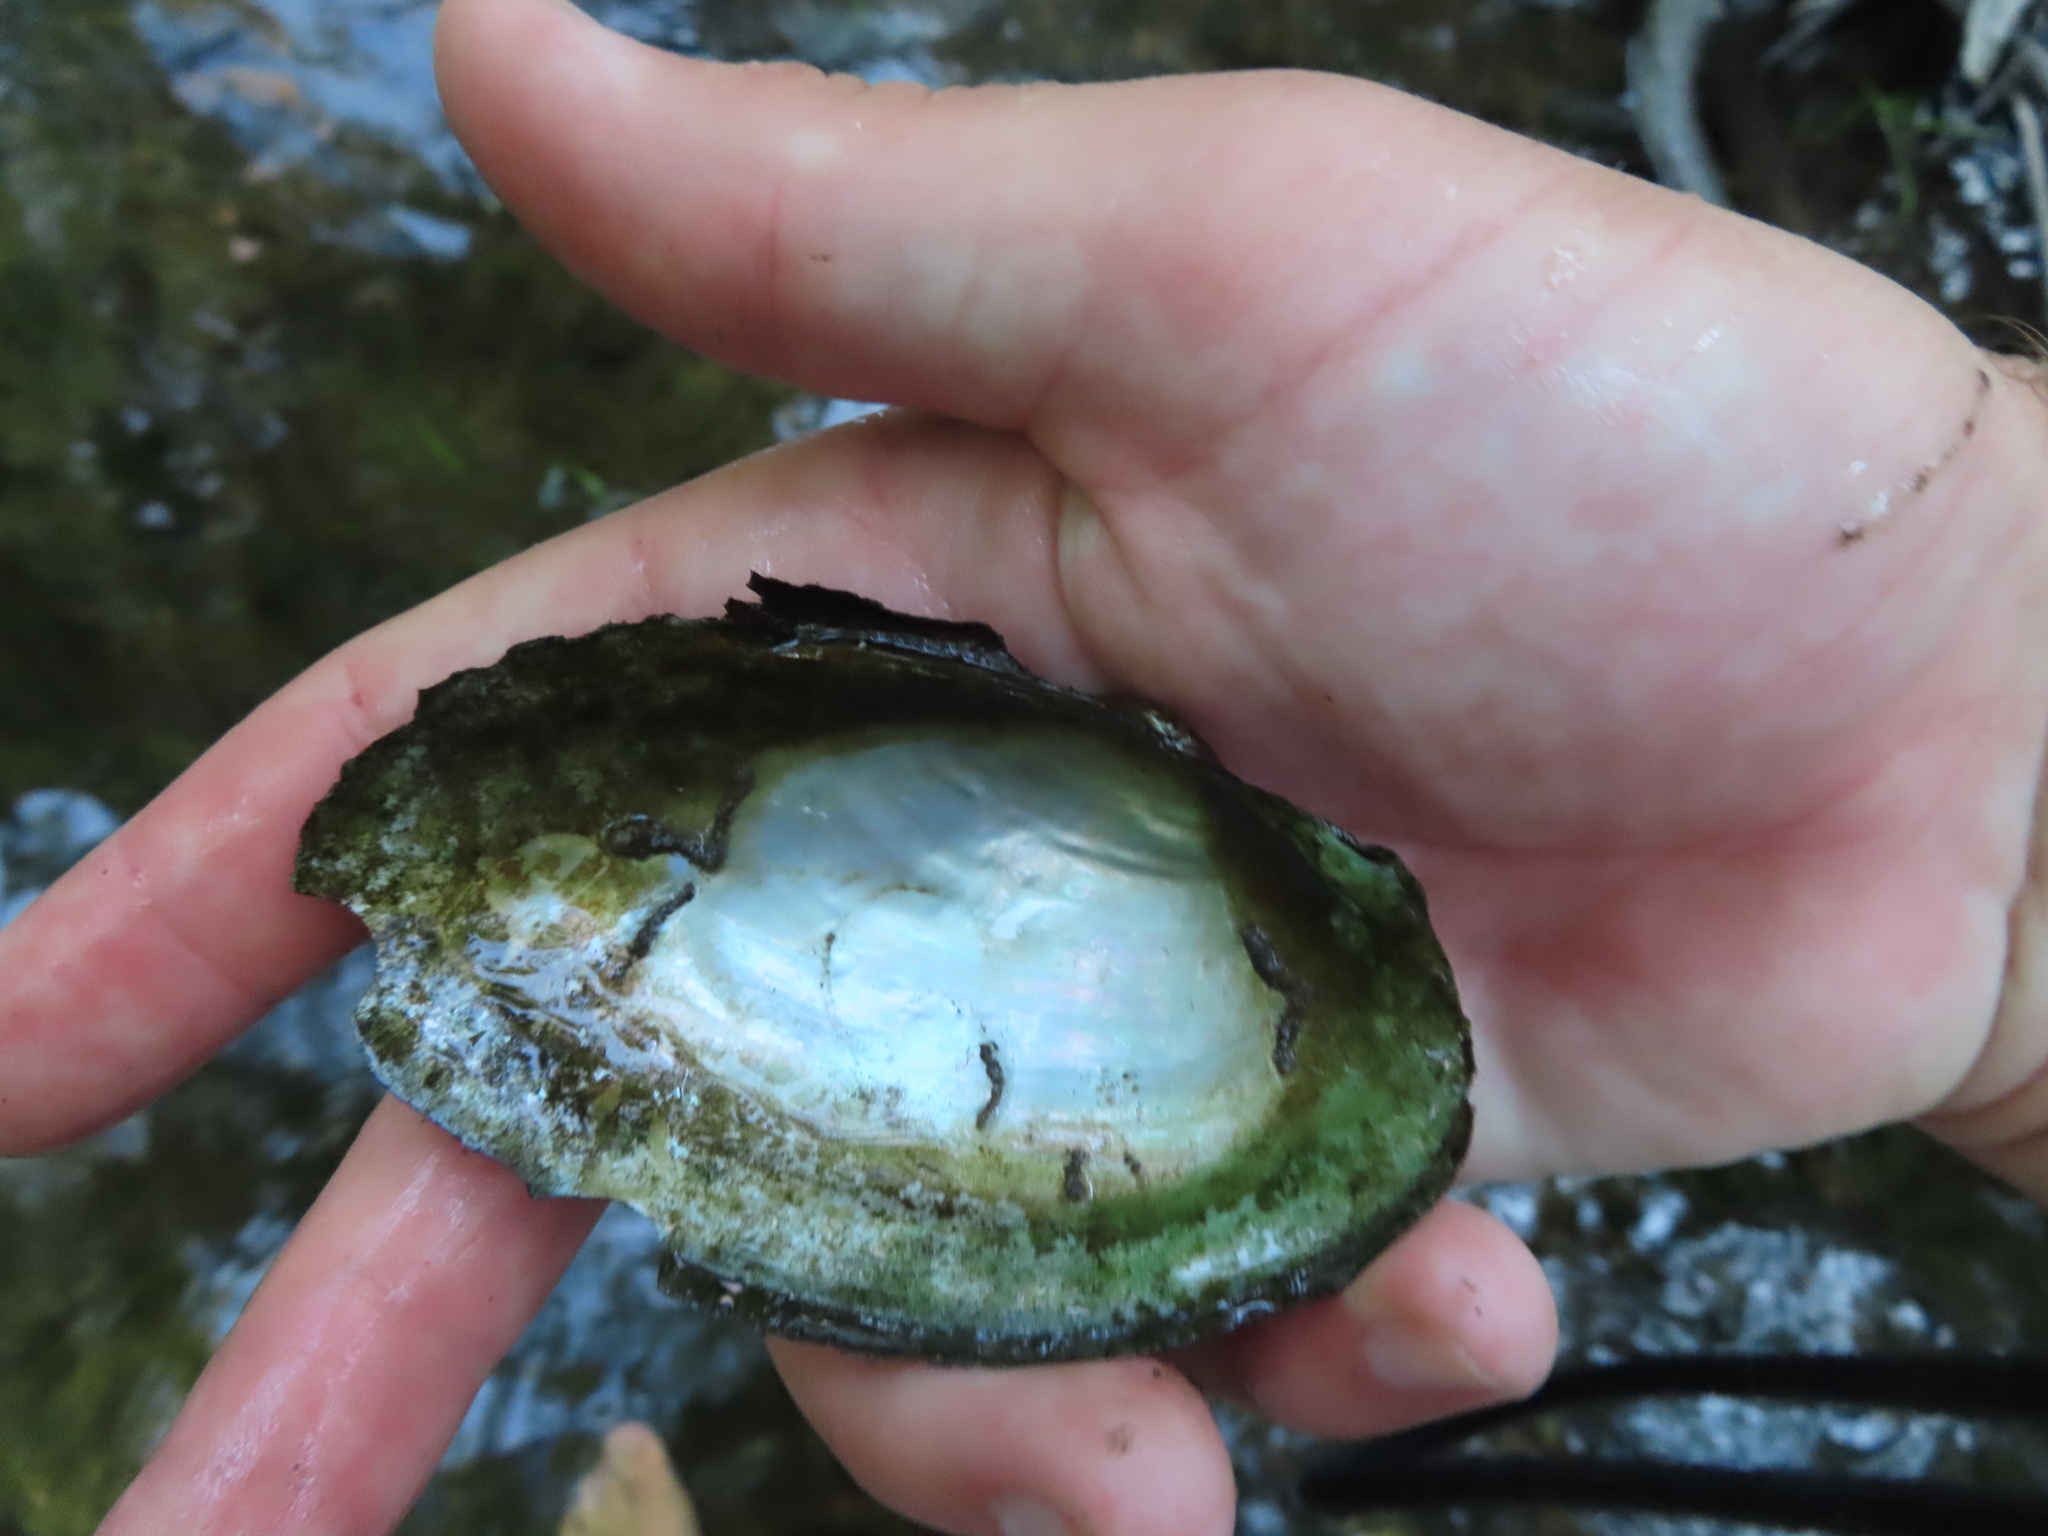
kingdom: Animalia
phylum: Mollusca
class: Bivalvia
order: Unionida
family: Unionidae
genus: Pyganodon
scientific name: Pyganodon grandis
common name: Giant floater
